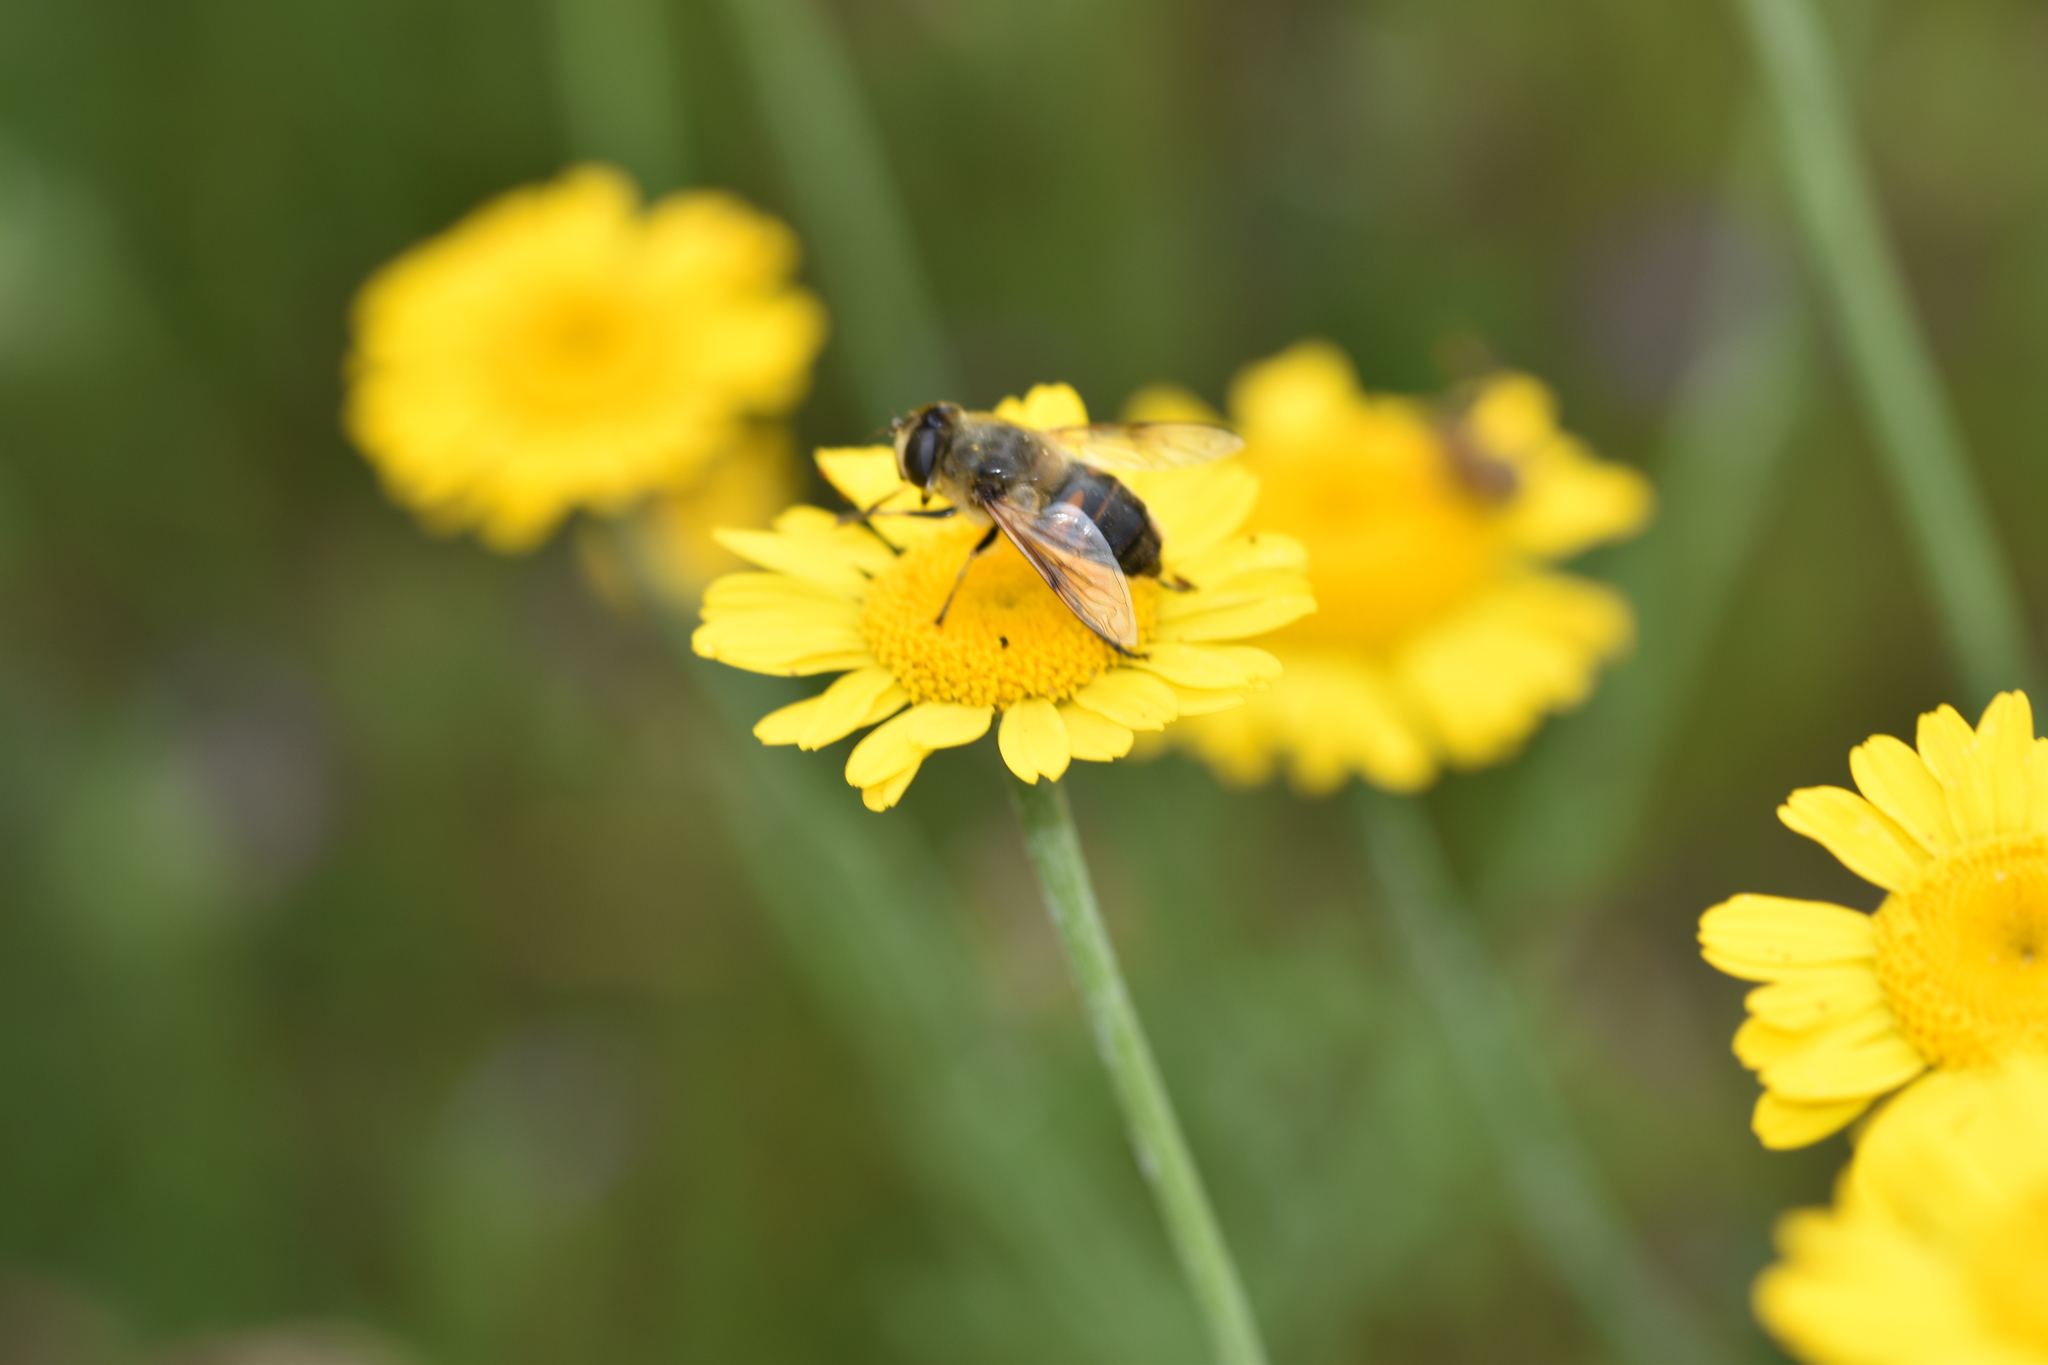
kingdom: Animalia
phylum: Arthropoda
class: Insecta
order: Diptera
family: Syrphidae
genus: Eristalis
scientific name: Eristalis tenax
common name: Drone fly
